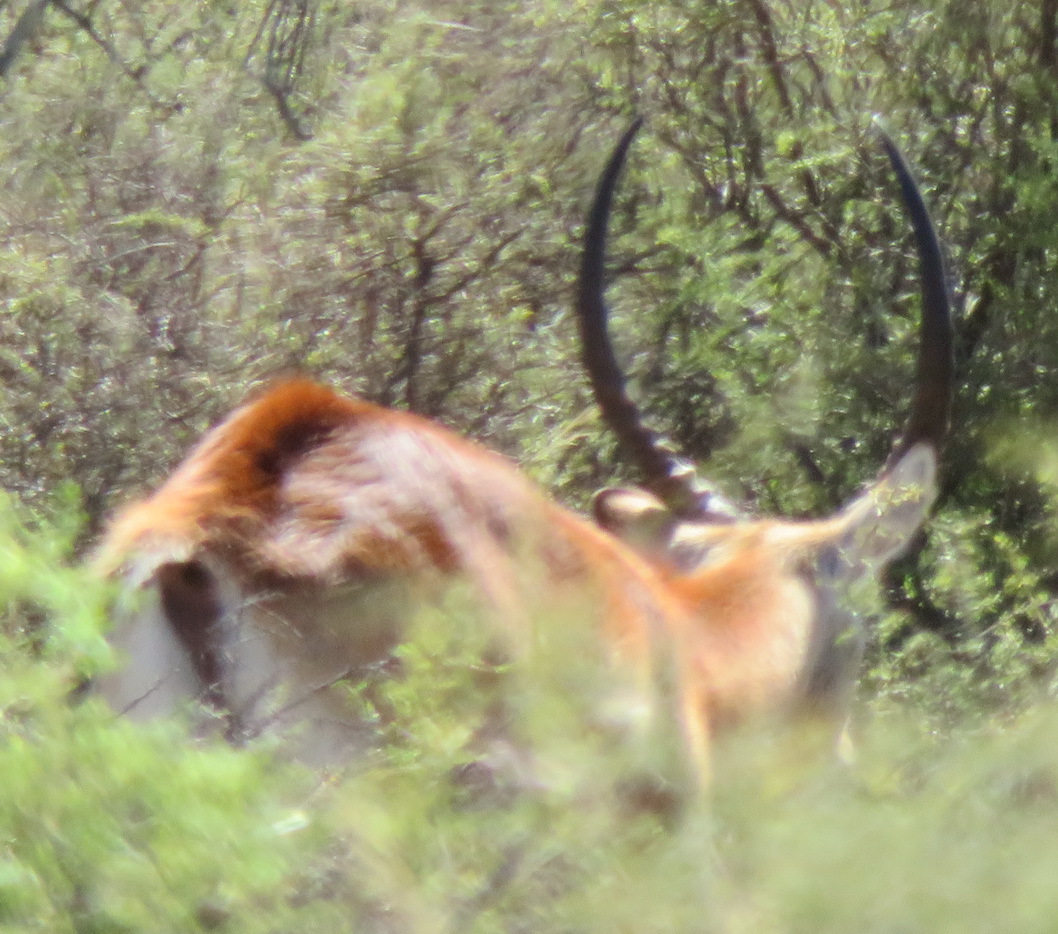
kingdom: Animalia
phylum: Chordata
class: Mammalia
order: Artiodactyla
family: Bovidae
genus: Kobus
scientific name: Kobus ellipsiprymnus
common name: Waterbuck
